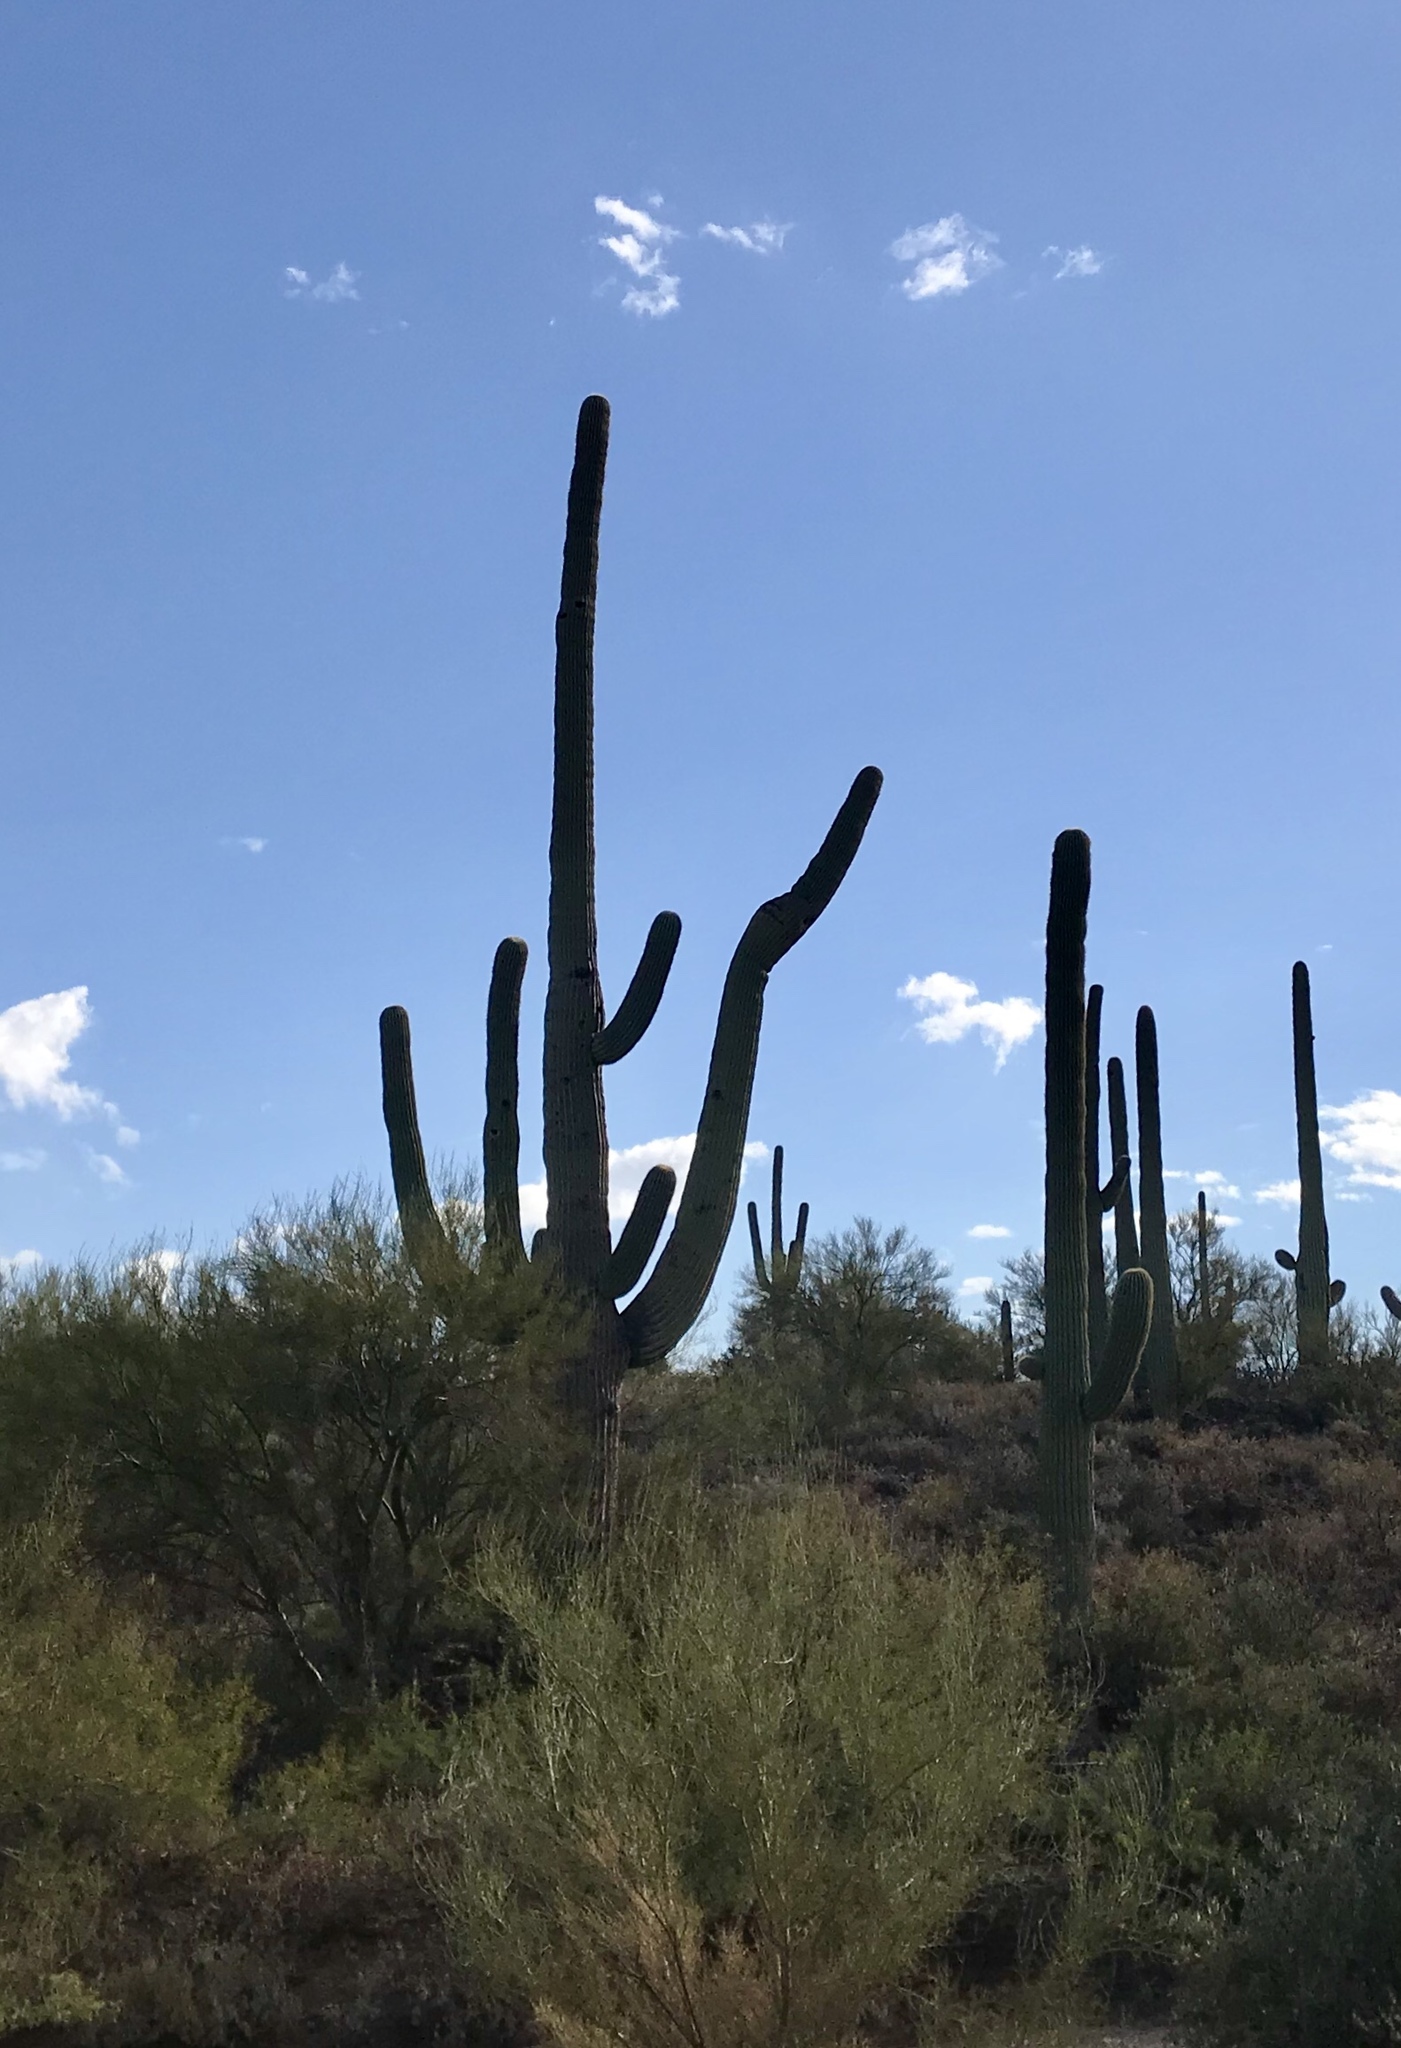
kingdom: Plantae
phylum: Tracheophyta
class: Magnoliopsida
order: Caryophyllales
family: Cactaceae
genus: Carnegiea
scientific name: Carnegiea gigantea
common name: Saguaro
